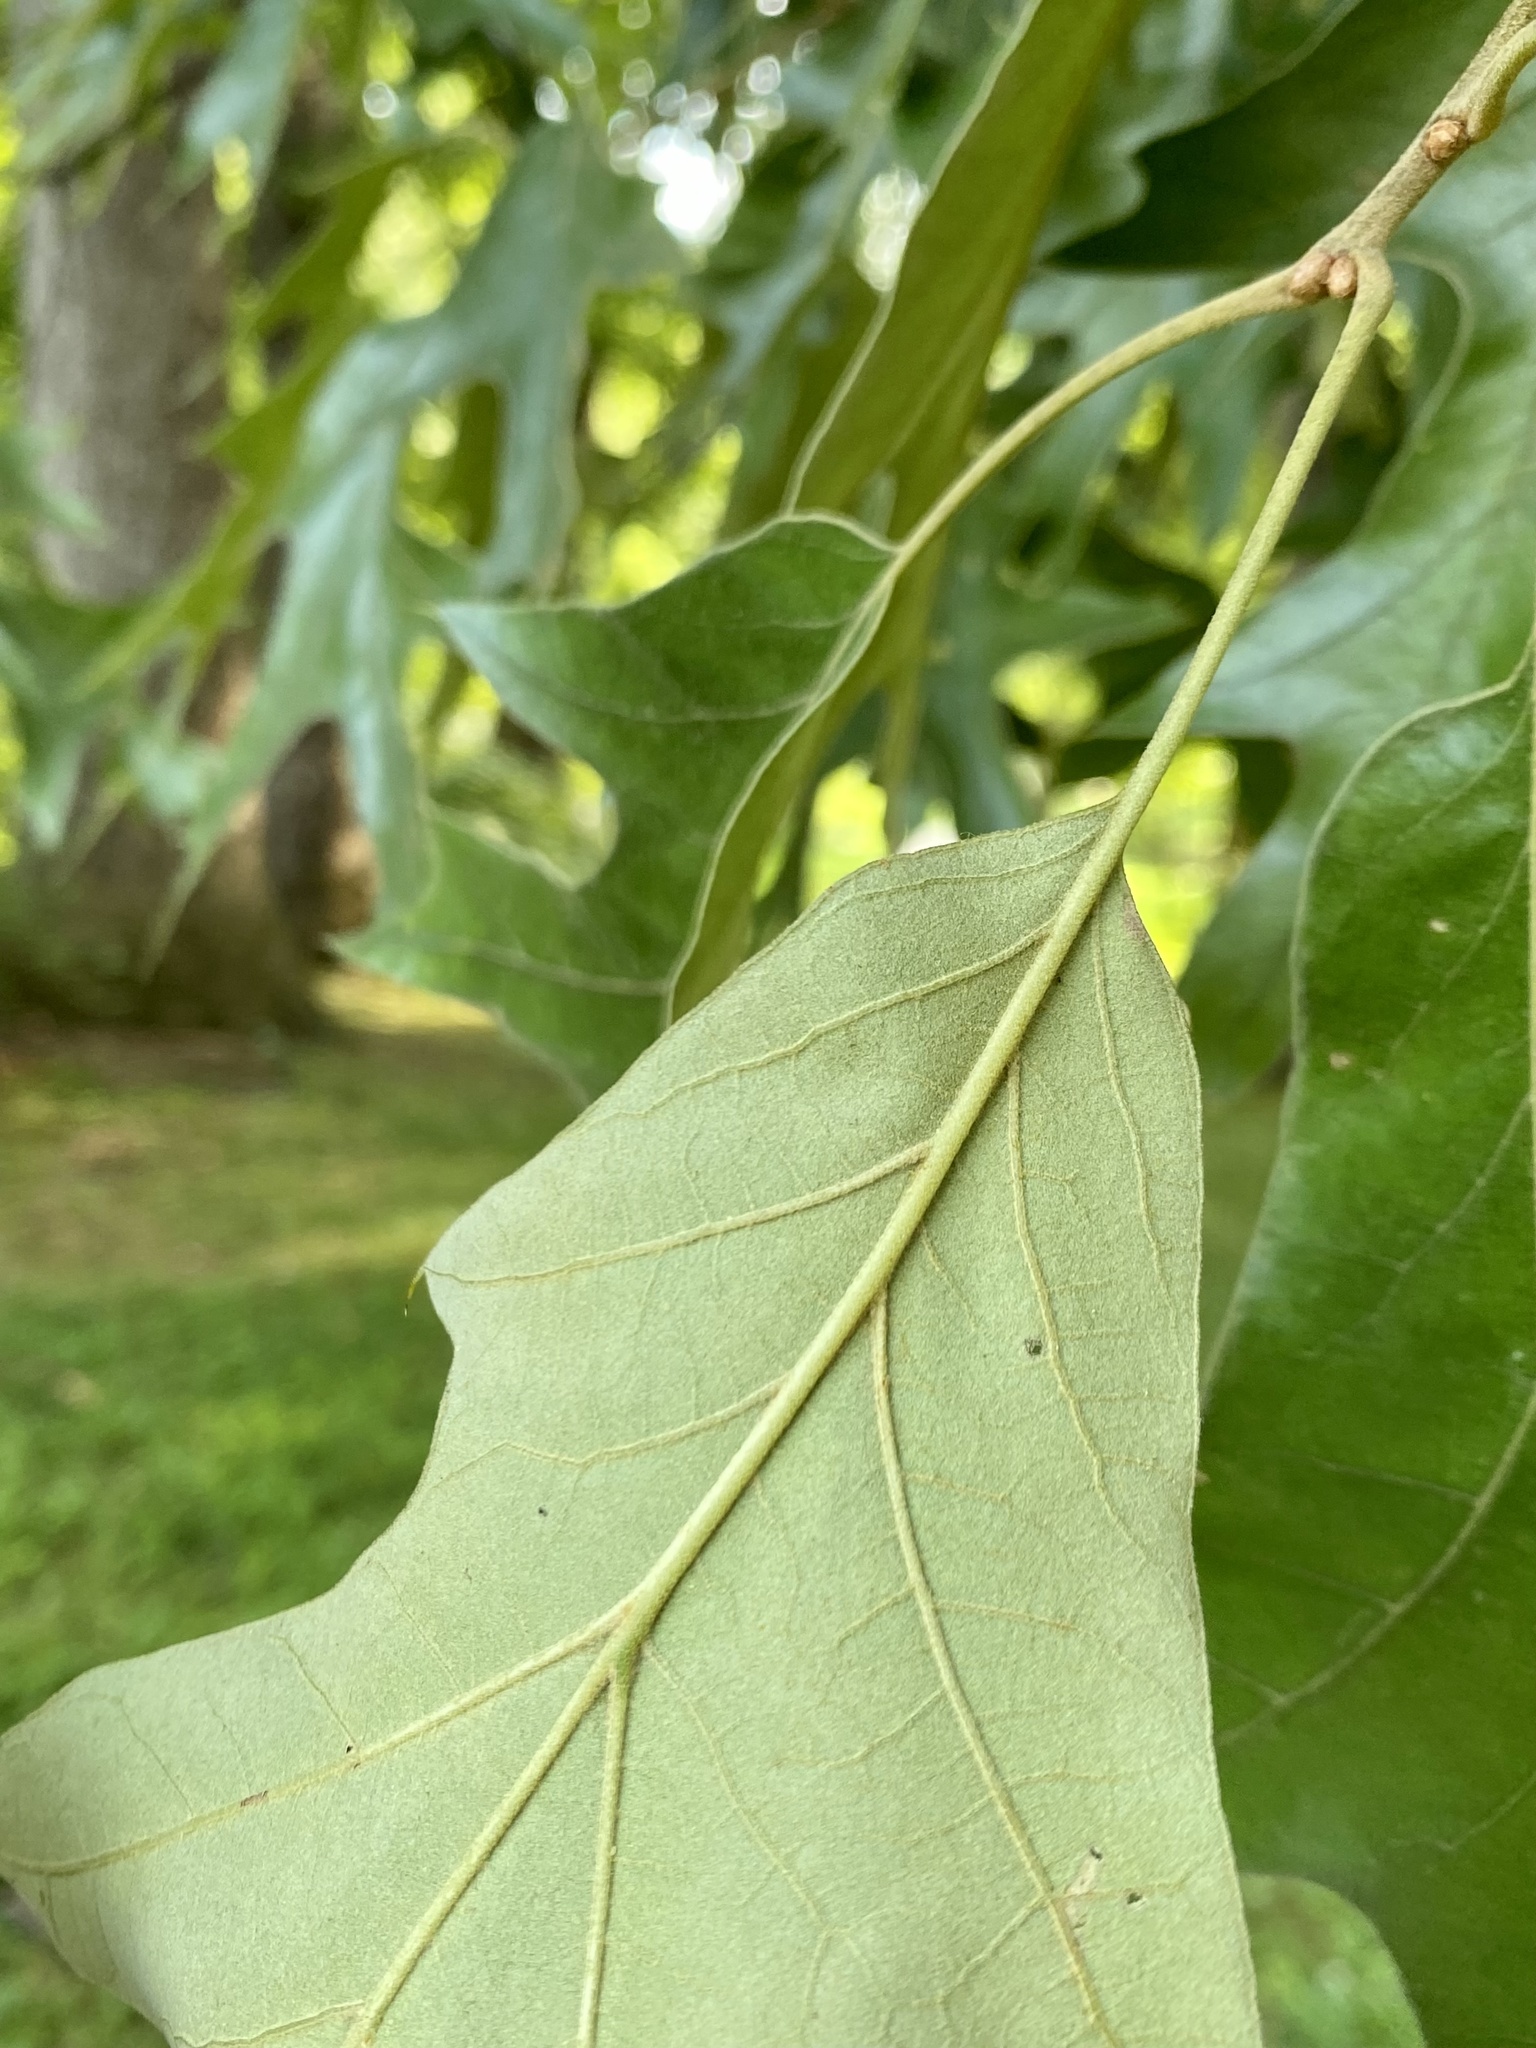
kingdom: Plantae
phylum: Tracheophyta
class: Magnoliopsida
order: Fagales
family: Fagaceae
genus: Quercus
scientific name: Quercus falcata
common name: Southern red oak
